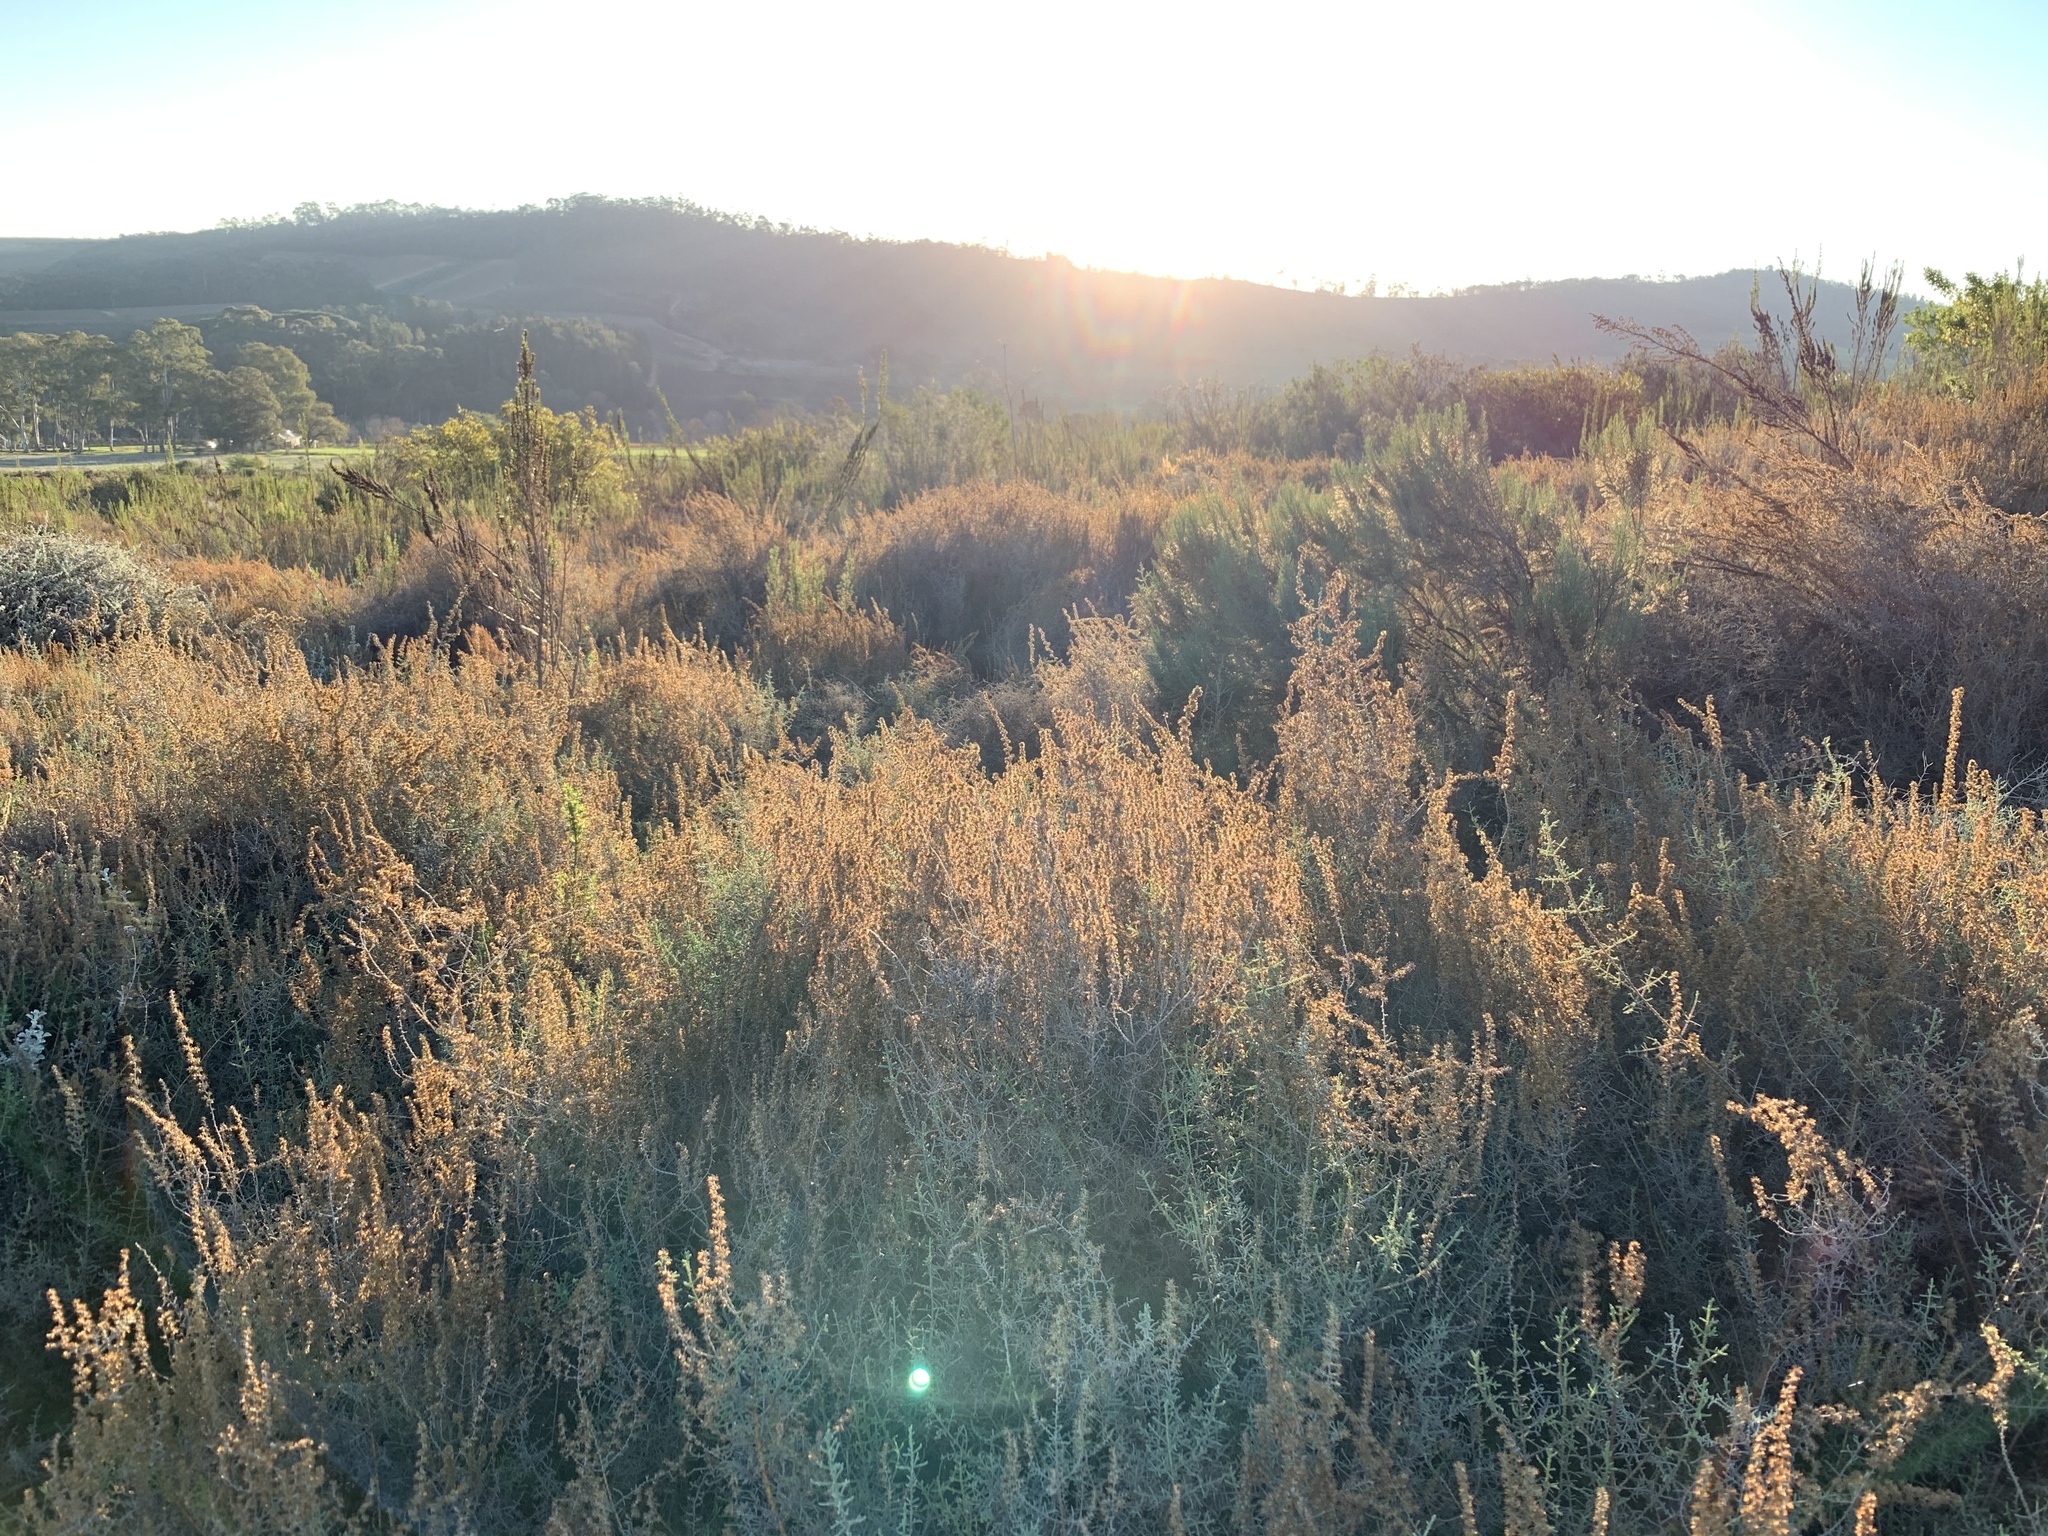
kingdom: Plantae
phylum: Tracheophyta
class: Magnoliopsida
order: Asterales
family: Asteraceae
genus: Seriphium
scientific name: Seriphium plumosum
